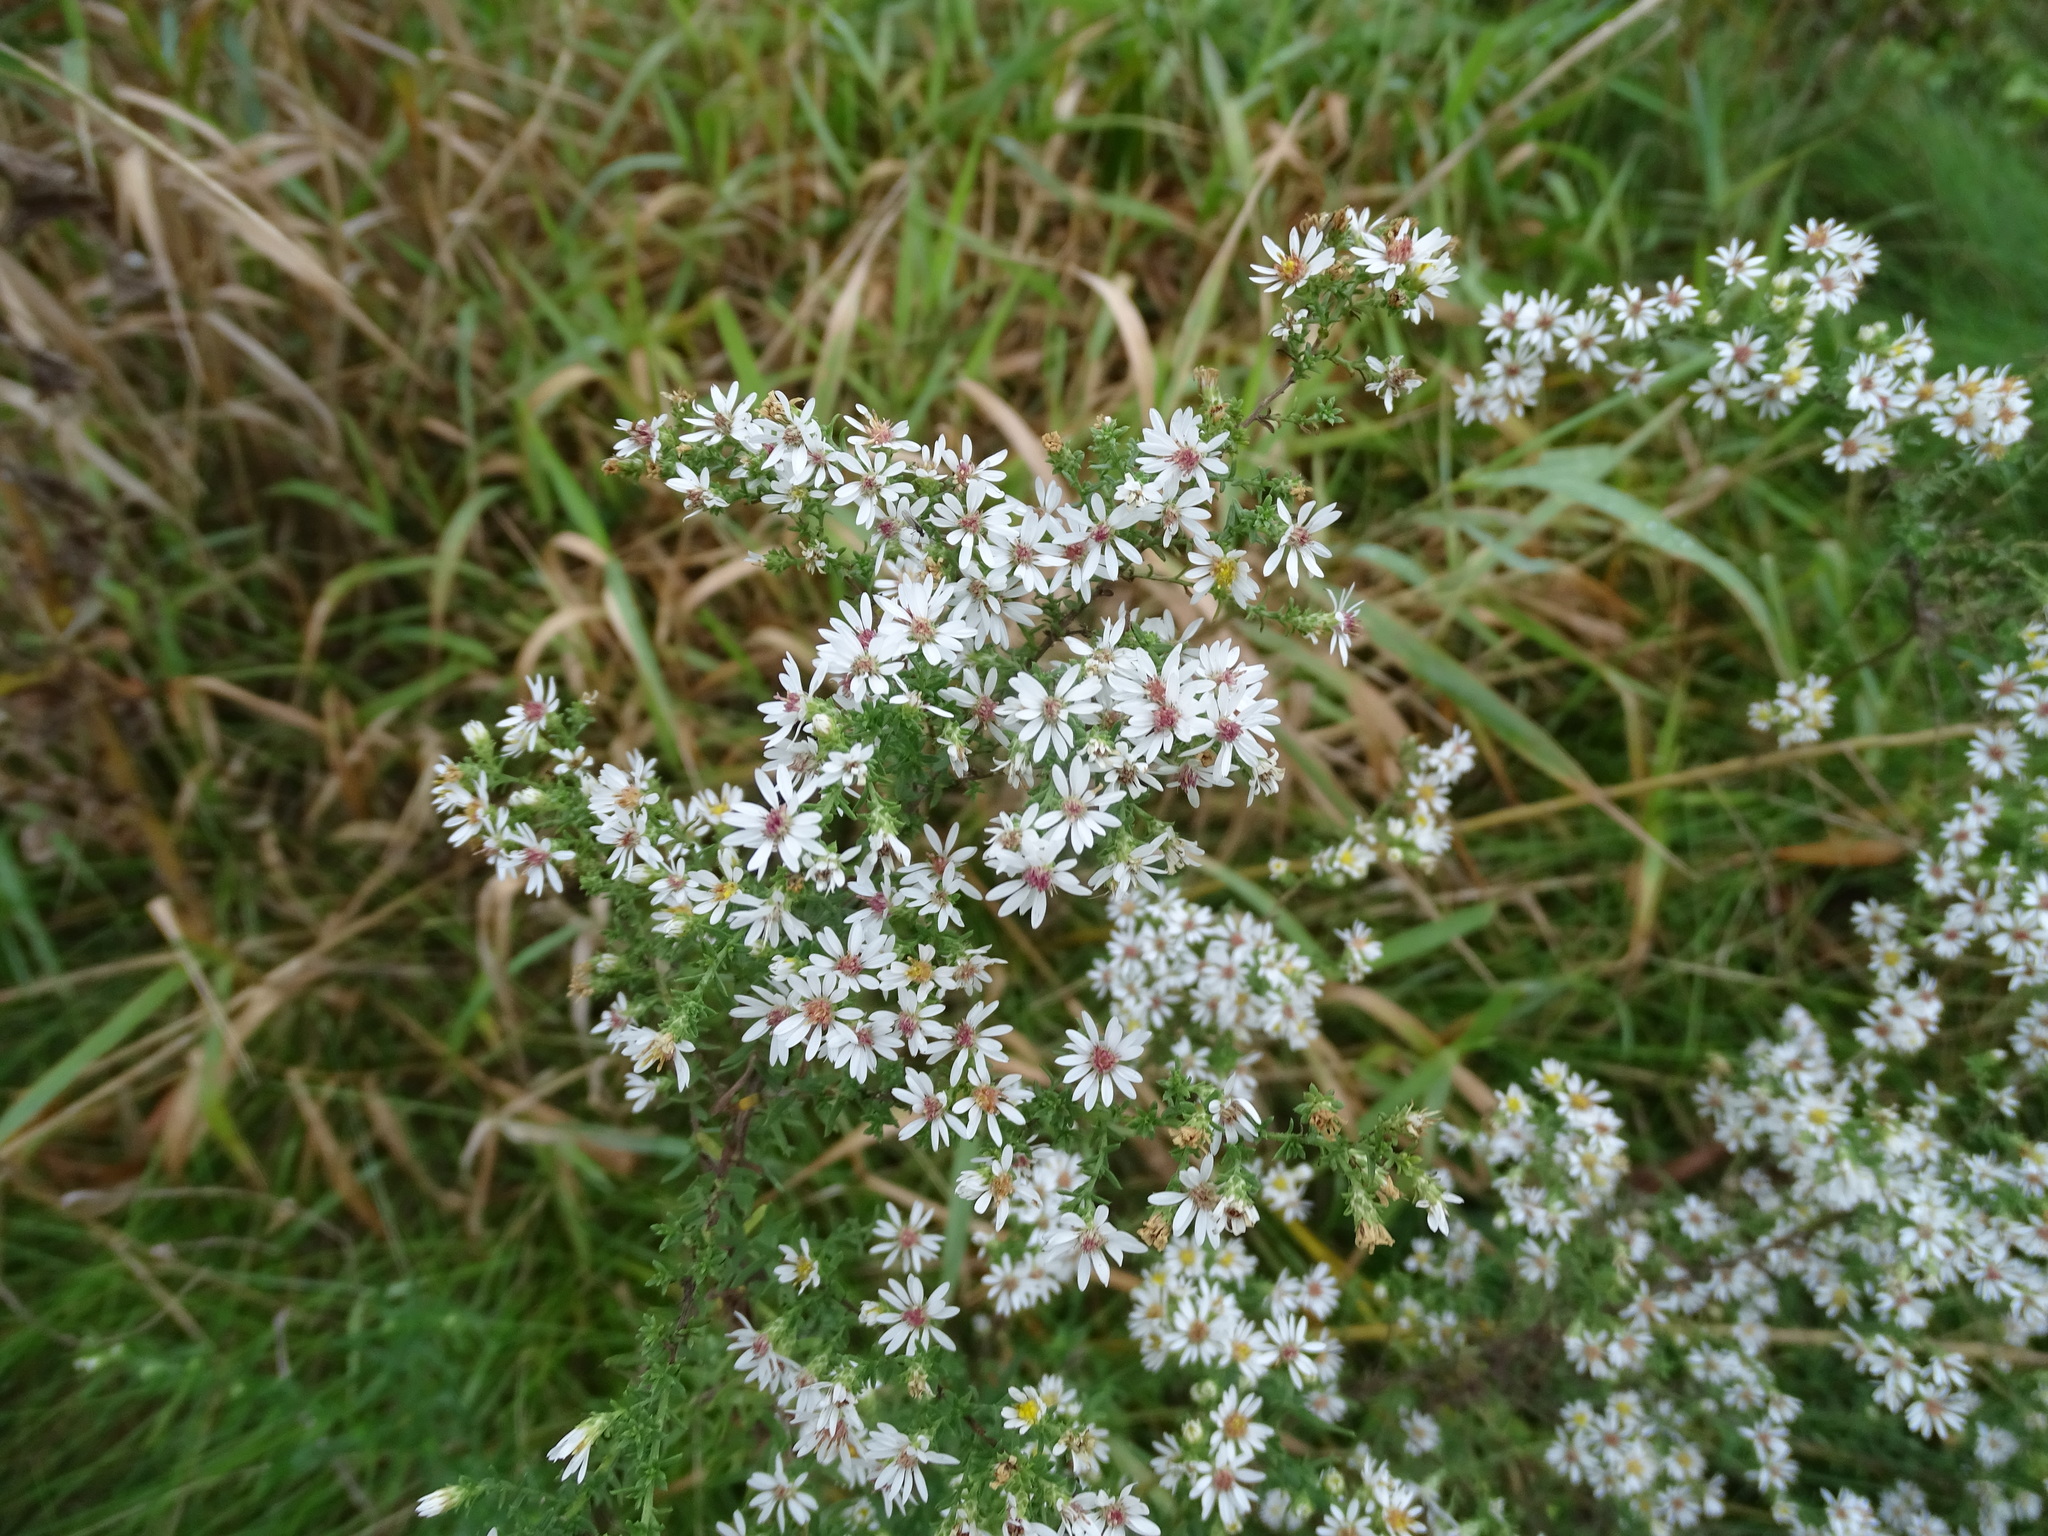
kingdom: Plantae
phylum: Tracheophyta
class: Magnoliopsida
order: Asterales
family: Asteraceae
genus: Symphyotrichum
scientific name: Symphyotrichum ericoides
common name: Heath aster
